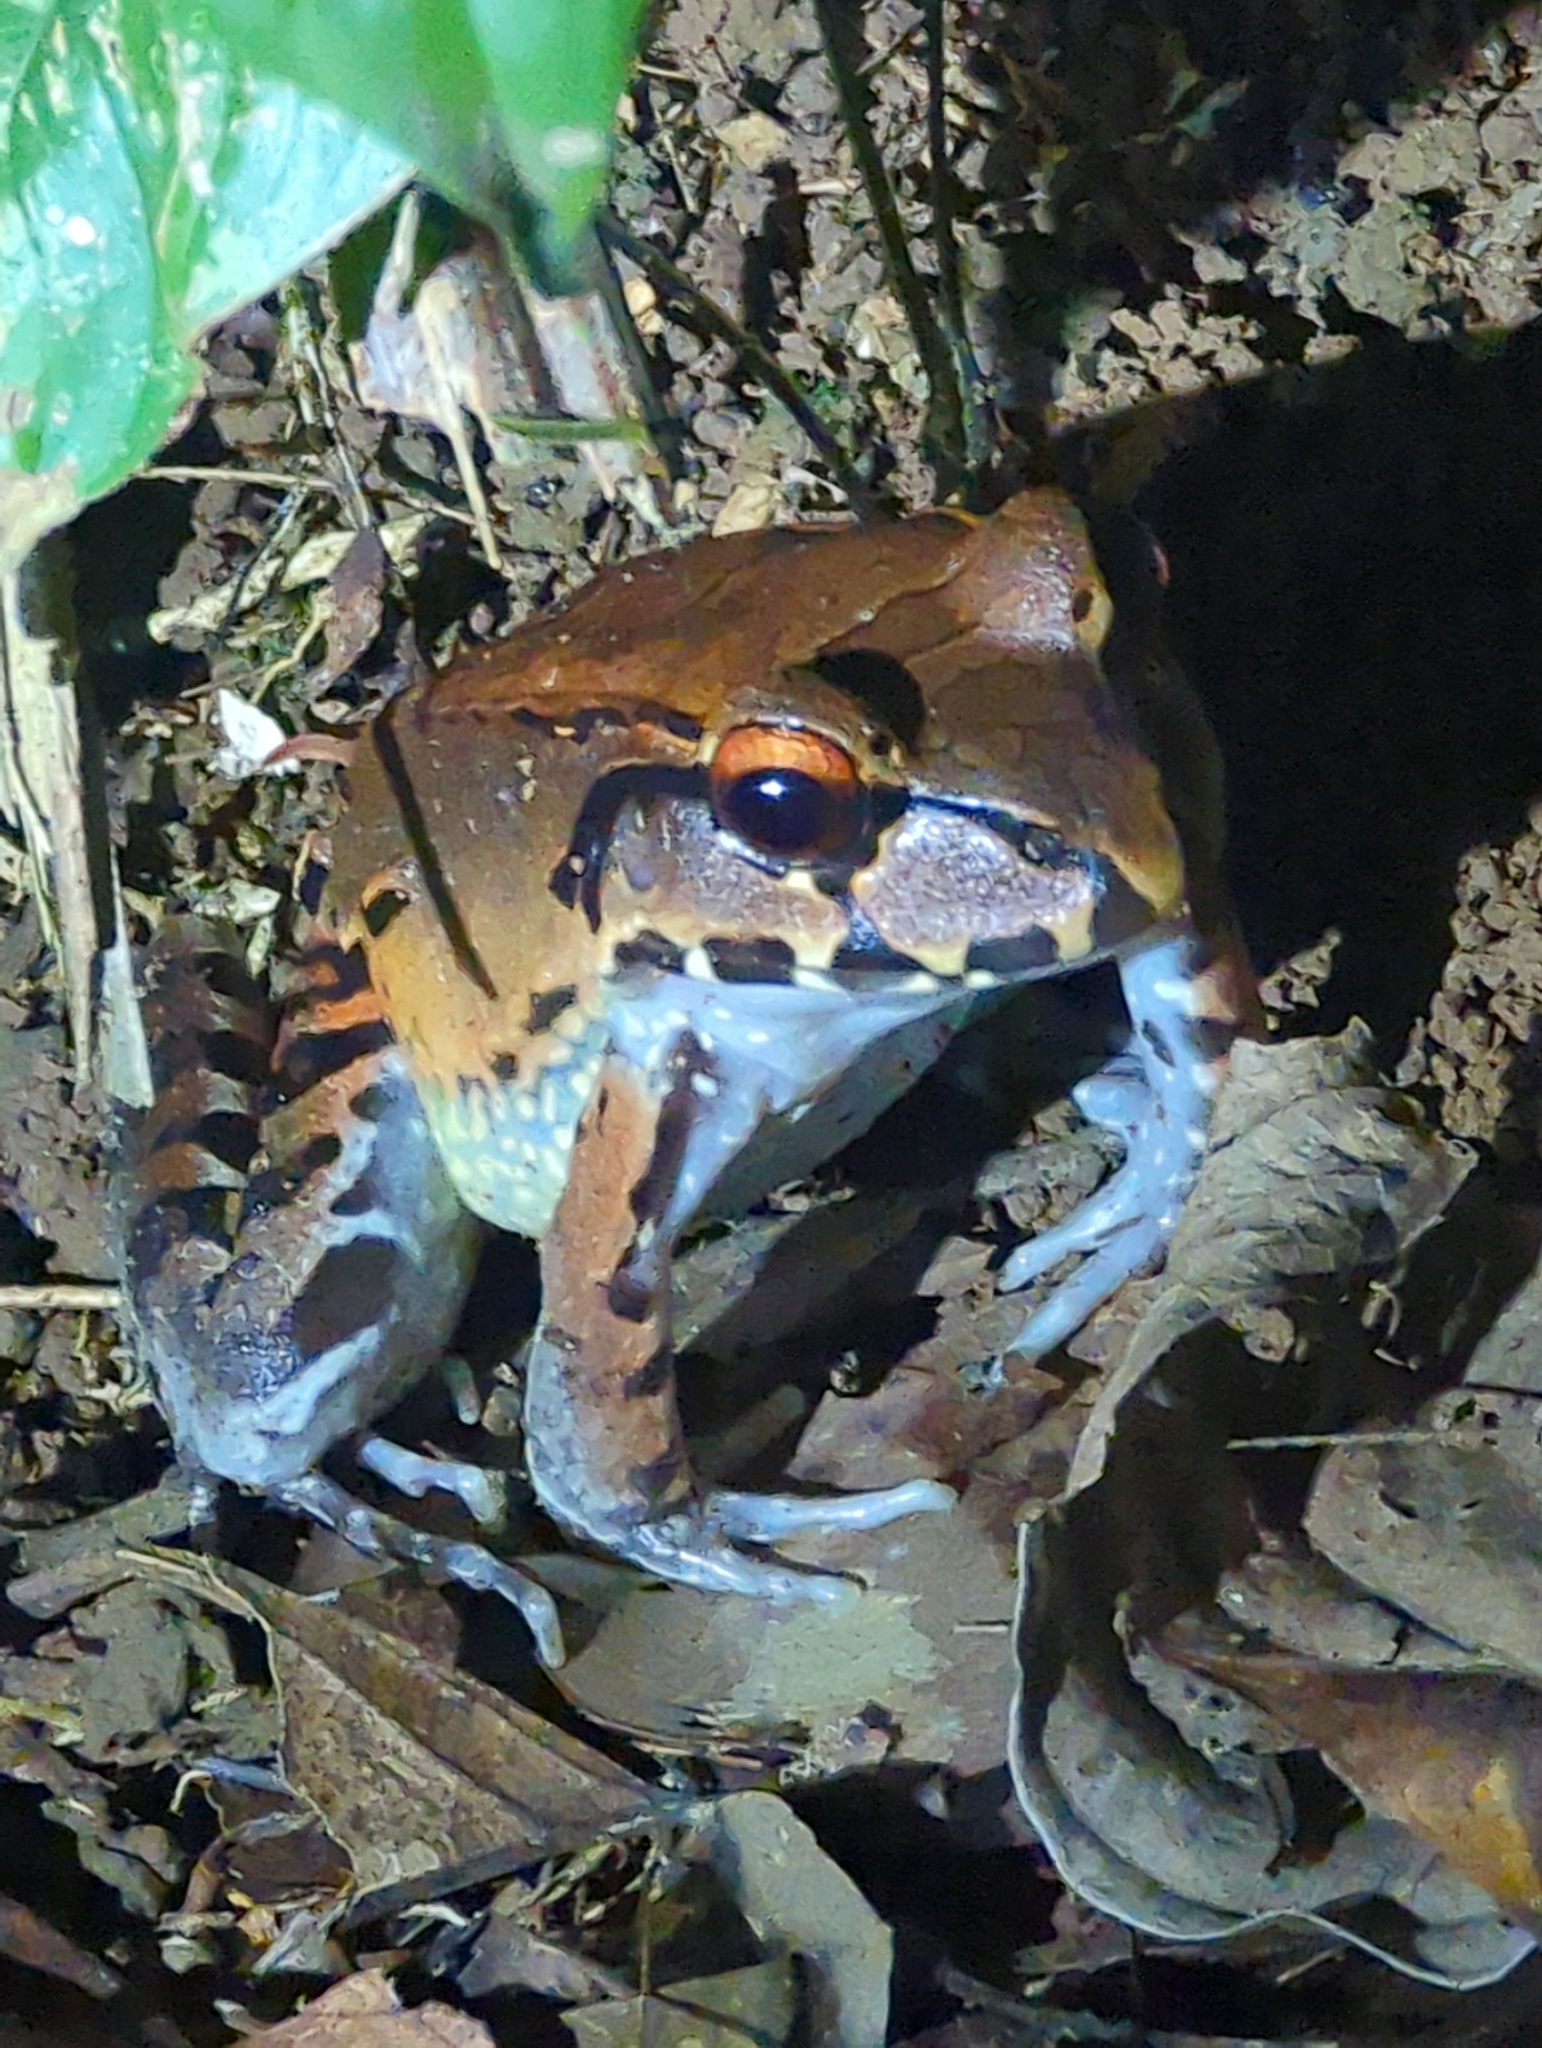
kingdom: Animalia
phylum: Chordata
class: Amphibia
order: Anura
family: Leptodactylidae
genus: Leptodactylus
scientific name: Leptodactylus savagei
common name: Savage's thin-toed frog
